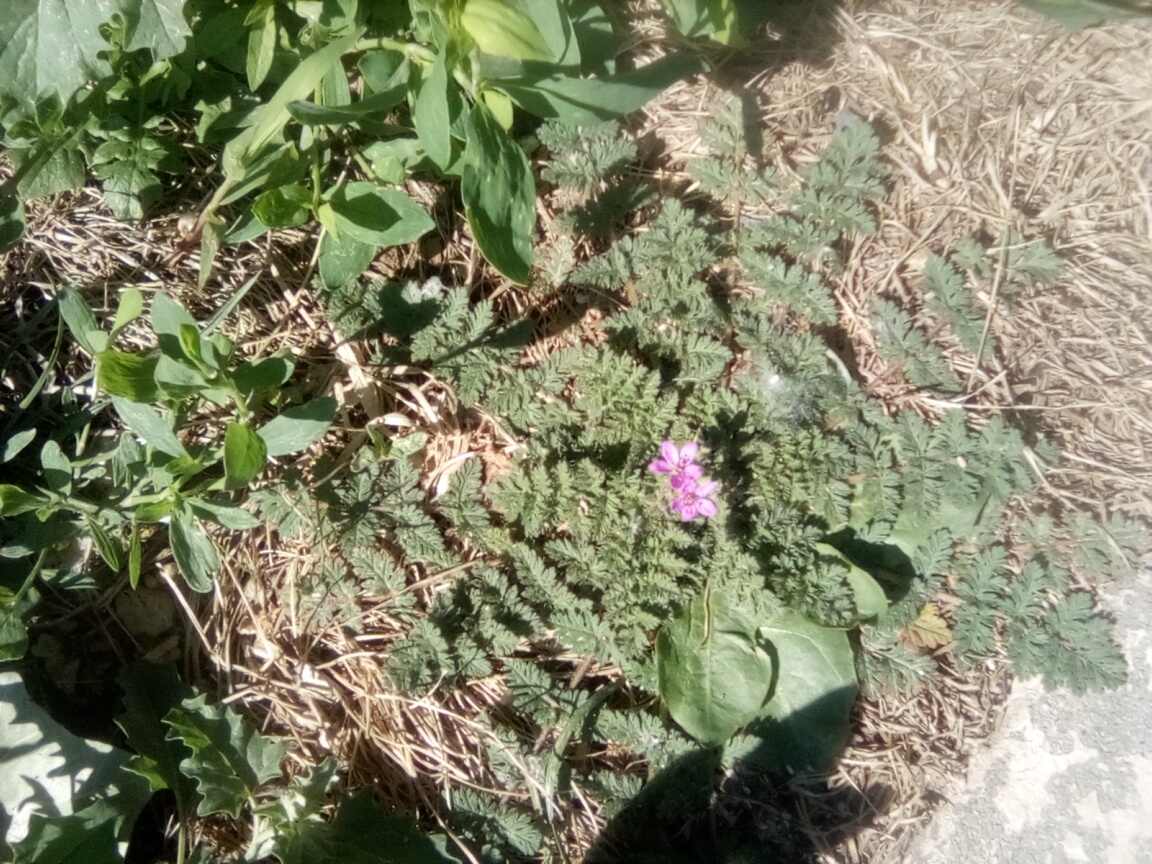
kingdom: Plantae
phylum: Tracheophyta
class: Magnoliopsida
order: Geraniales
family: Geraniaceae
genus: Erodium
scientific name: Erodium cicutarium
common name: Common stork's-bill
